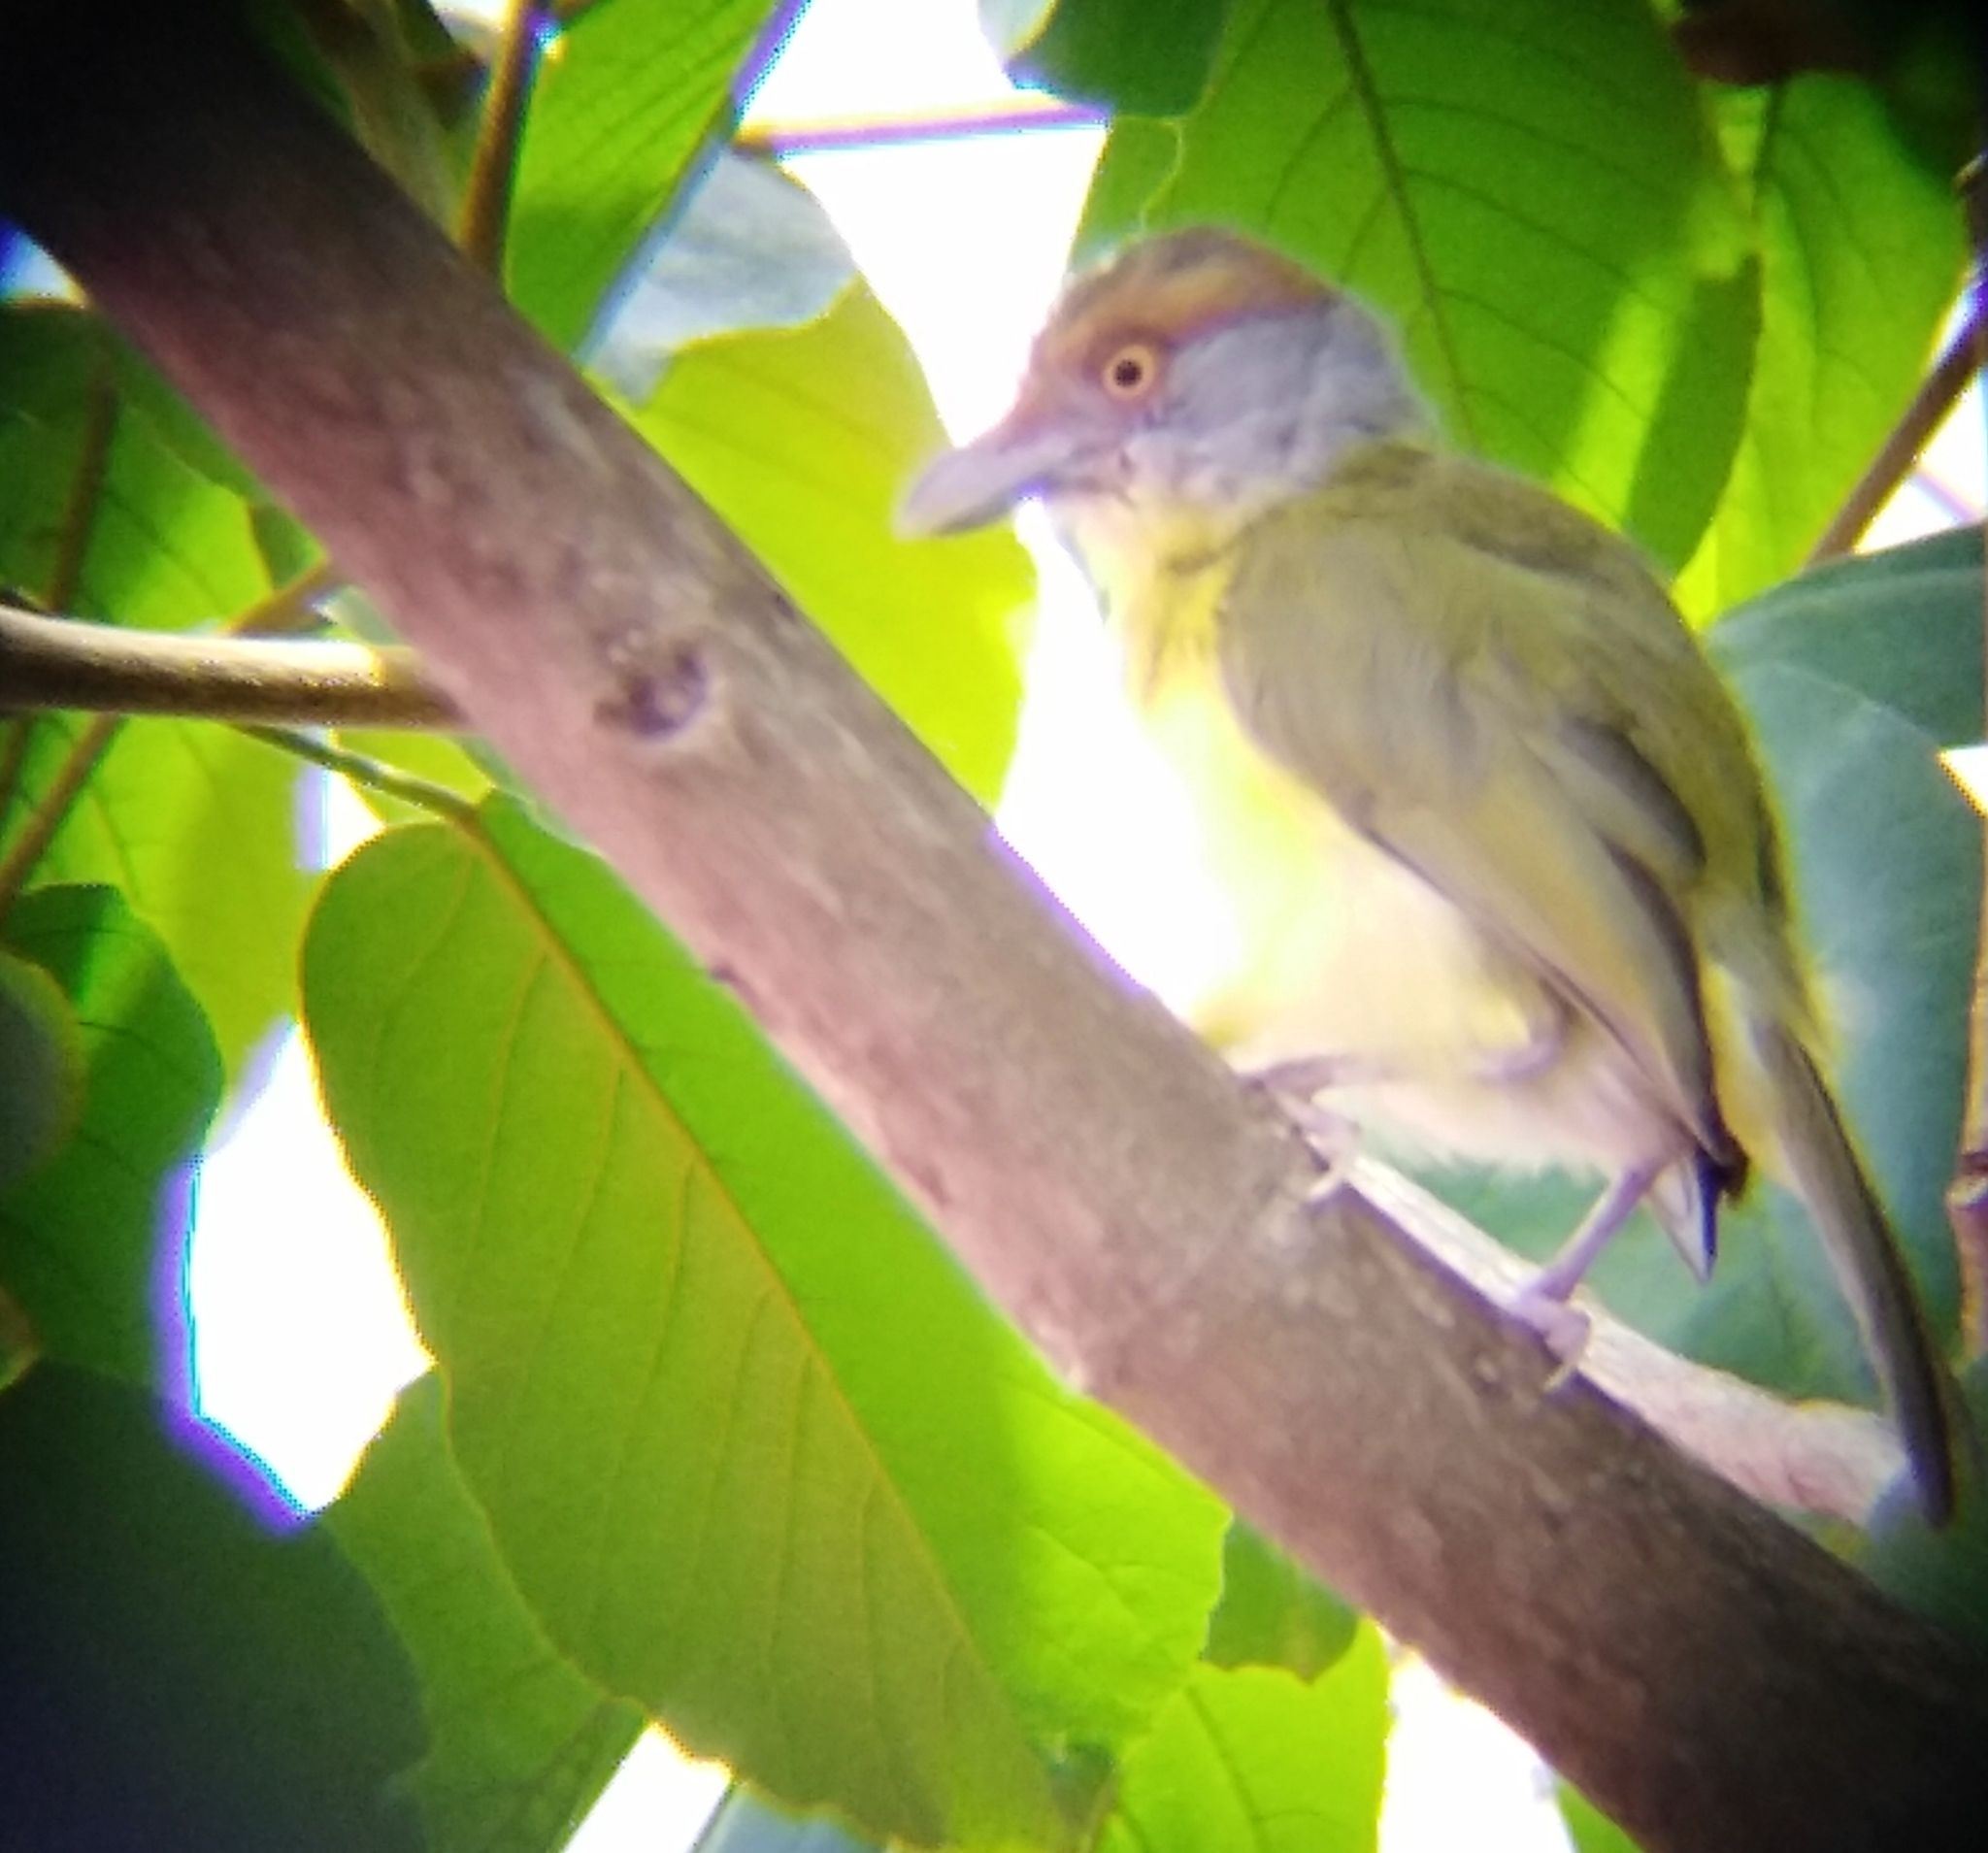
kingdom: Animalia
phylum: Chordata
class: Aves
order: Passeriformes
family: Vireonidae
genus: Cyclarhis
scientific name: Cyclarhis gujanensis
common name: Rufous-browed peppershrike
